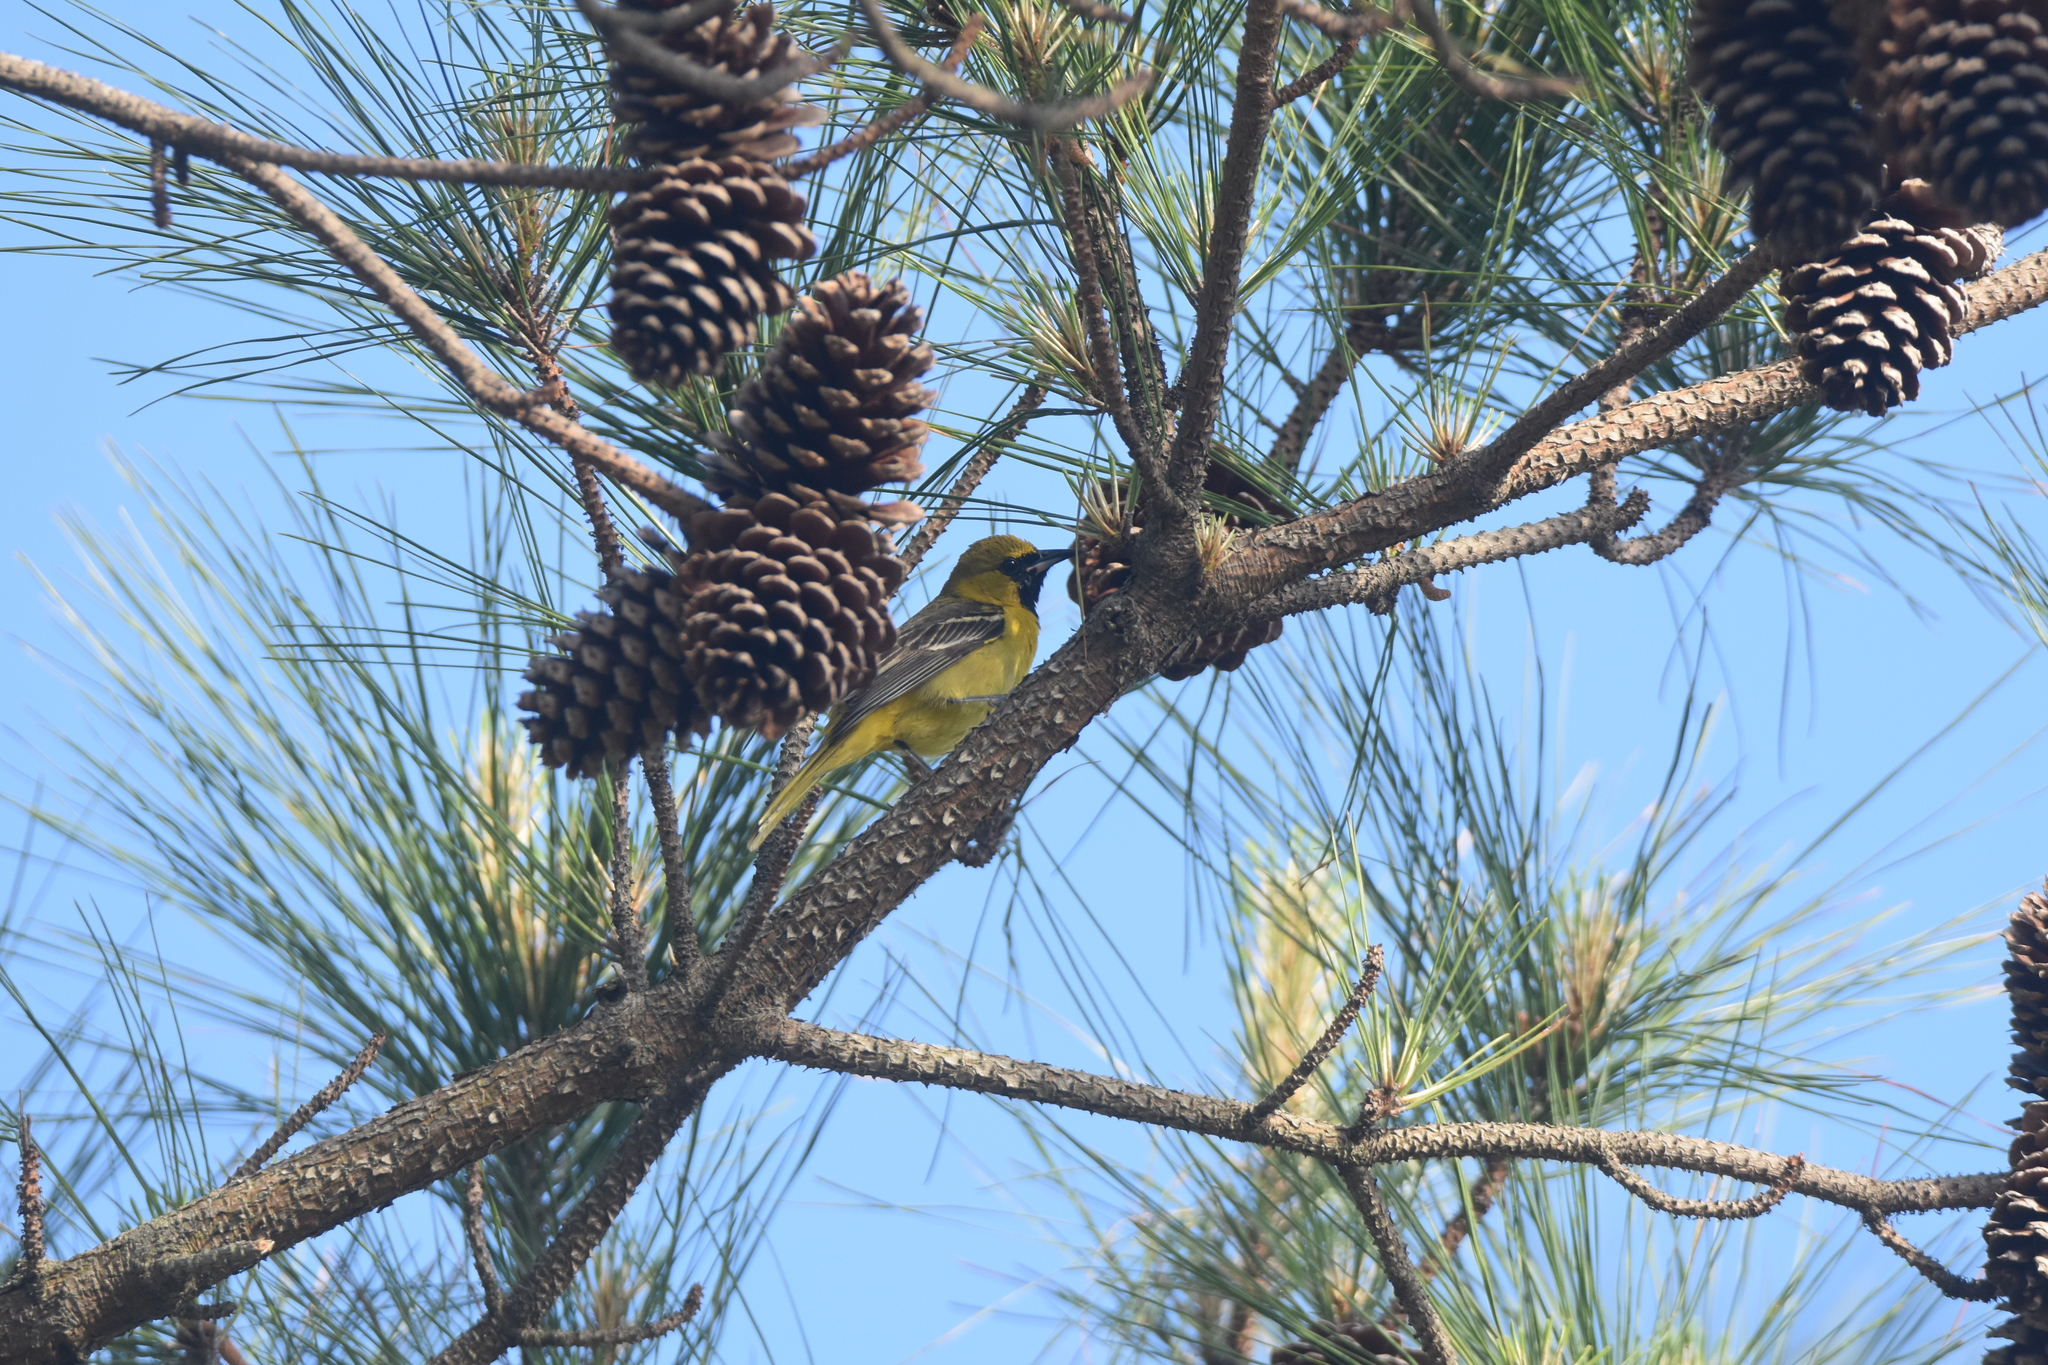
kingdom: Animalia
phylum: Chordata
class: Aves
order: Passeriformes
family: Icteridae
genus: Icterus
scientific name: Icterus spurius
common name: Orchard oriole
